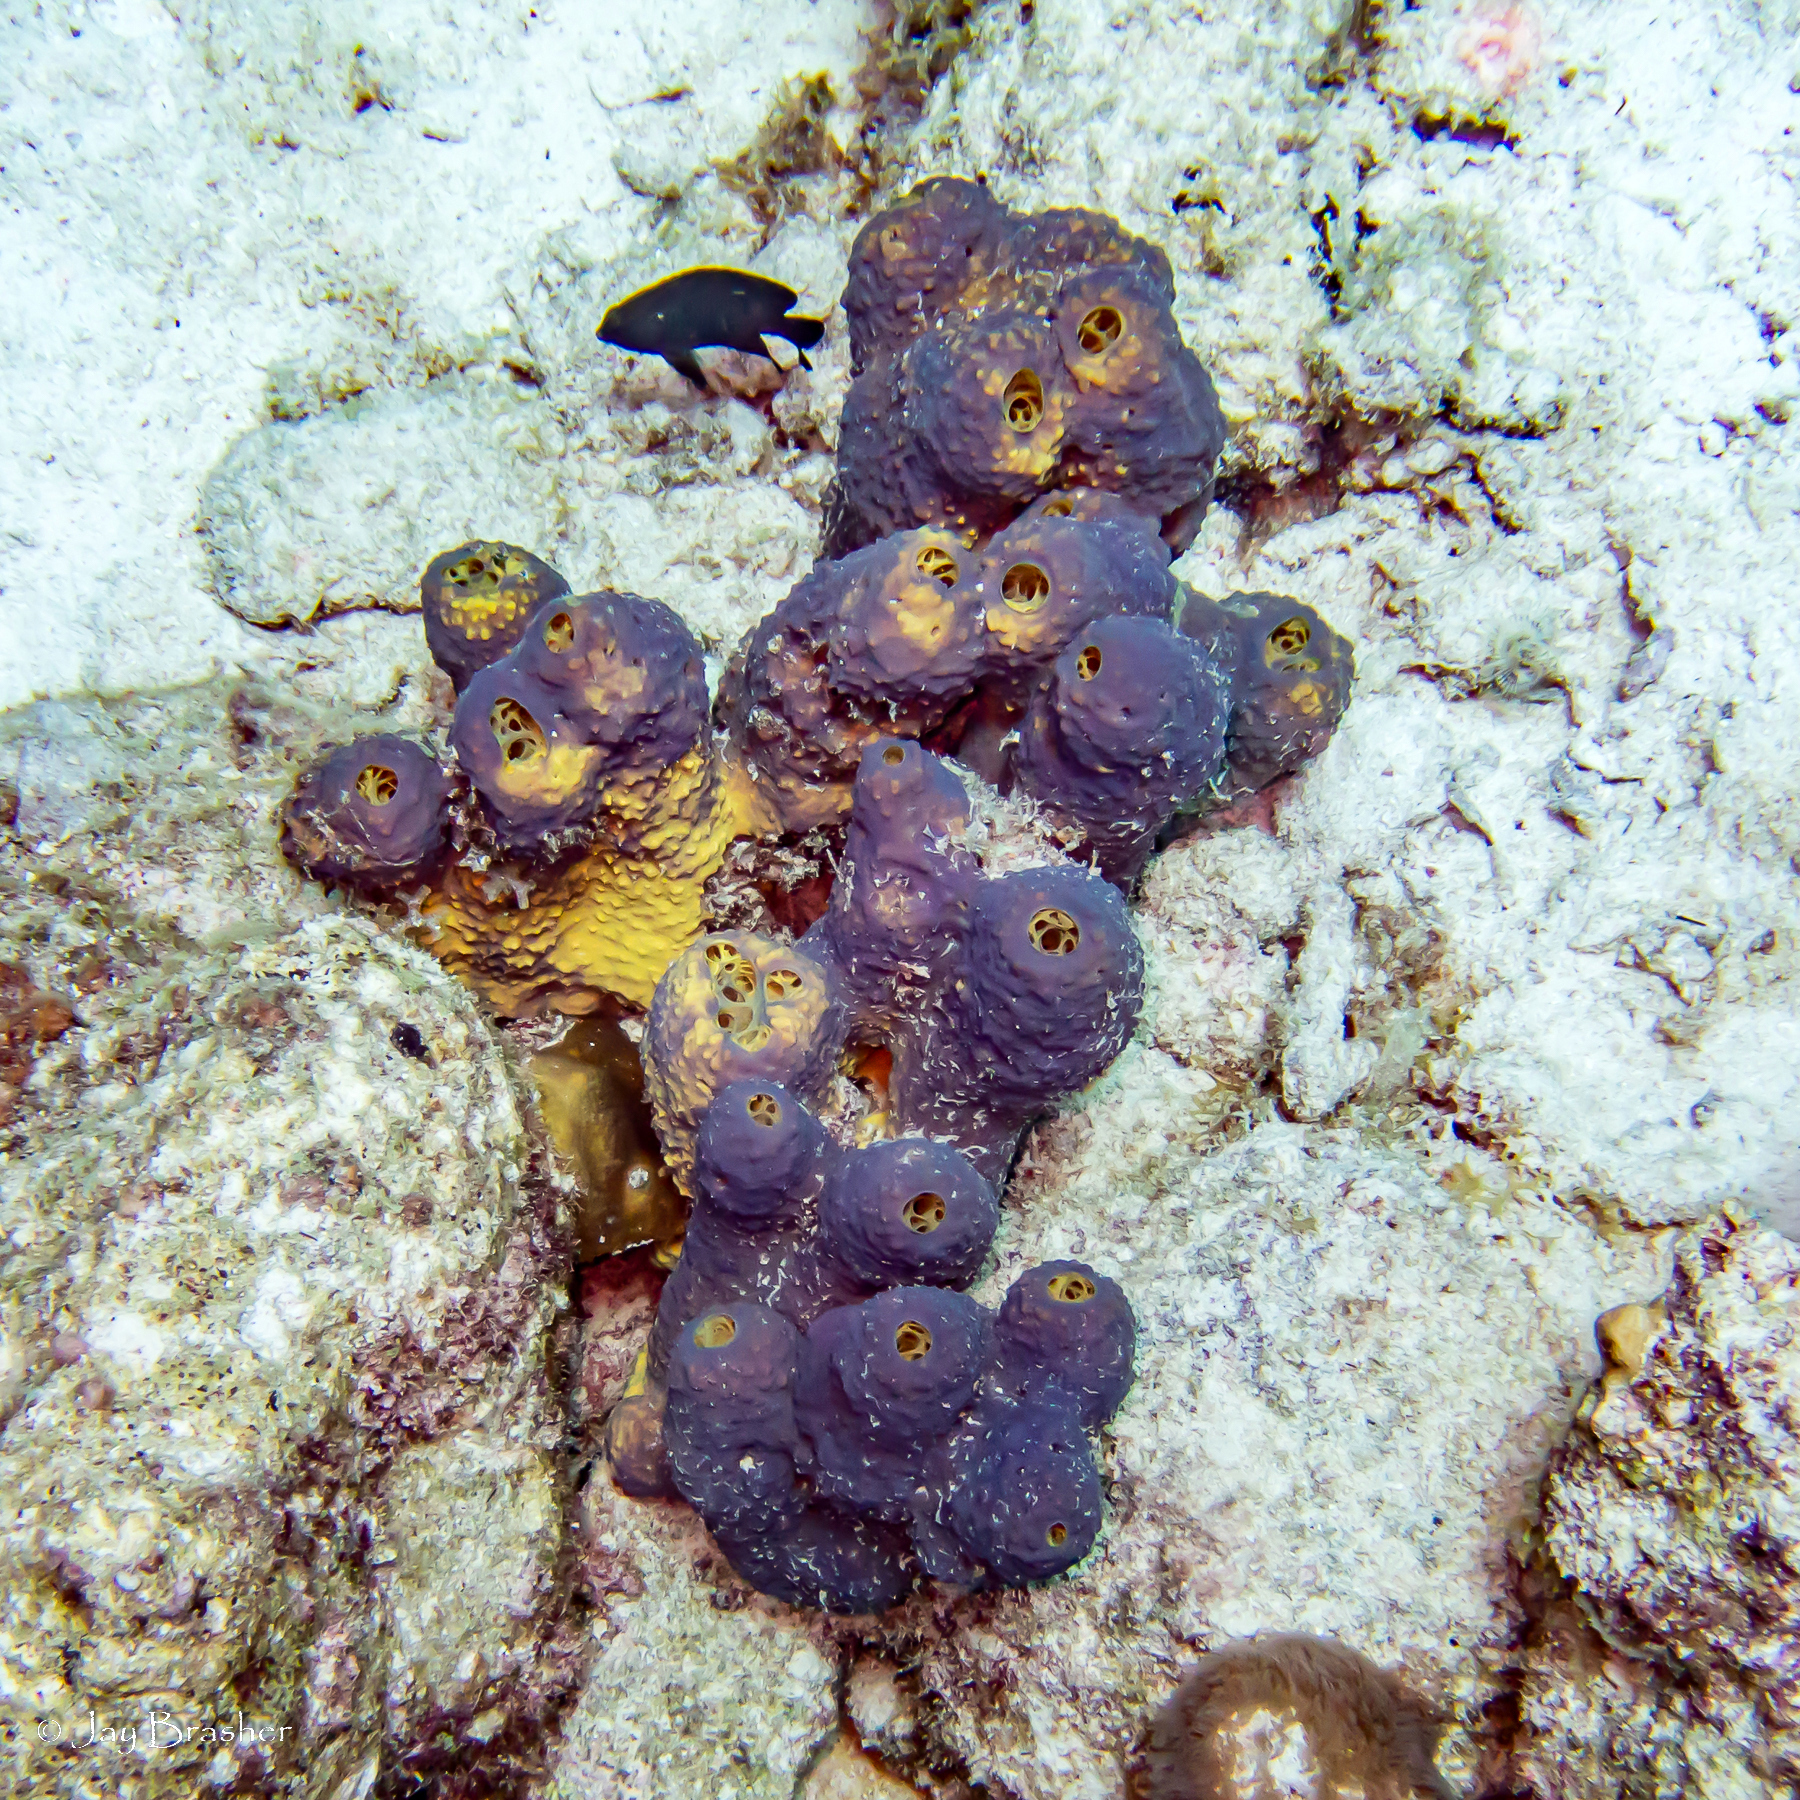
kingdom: Animalia
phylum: Porifera
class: Demospongiae
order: Verongiida
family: Aplysinidae
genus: Aiolochroia
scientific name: Aiolochroia crassa
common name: Branching tube sponge
